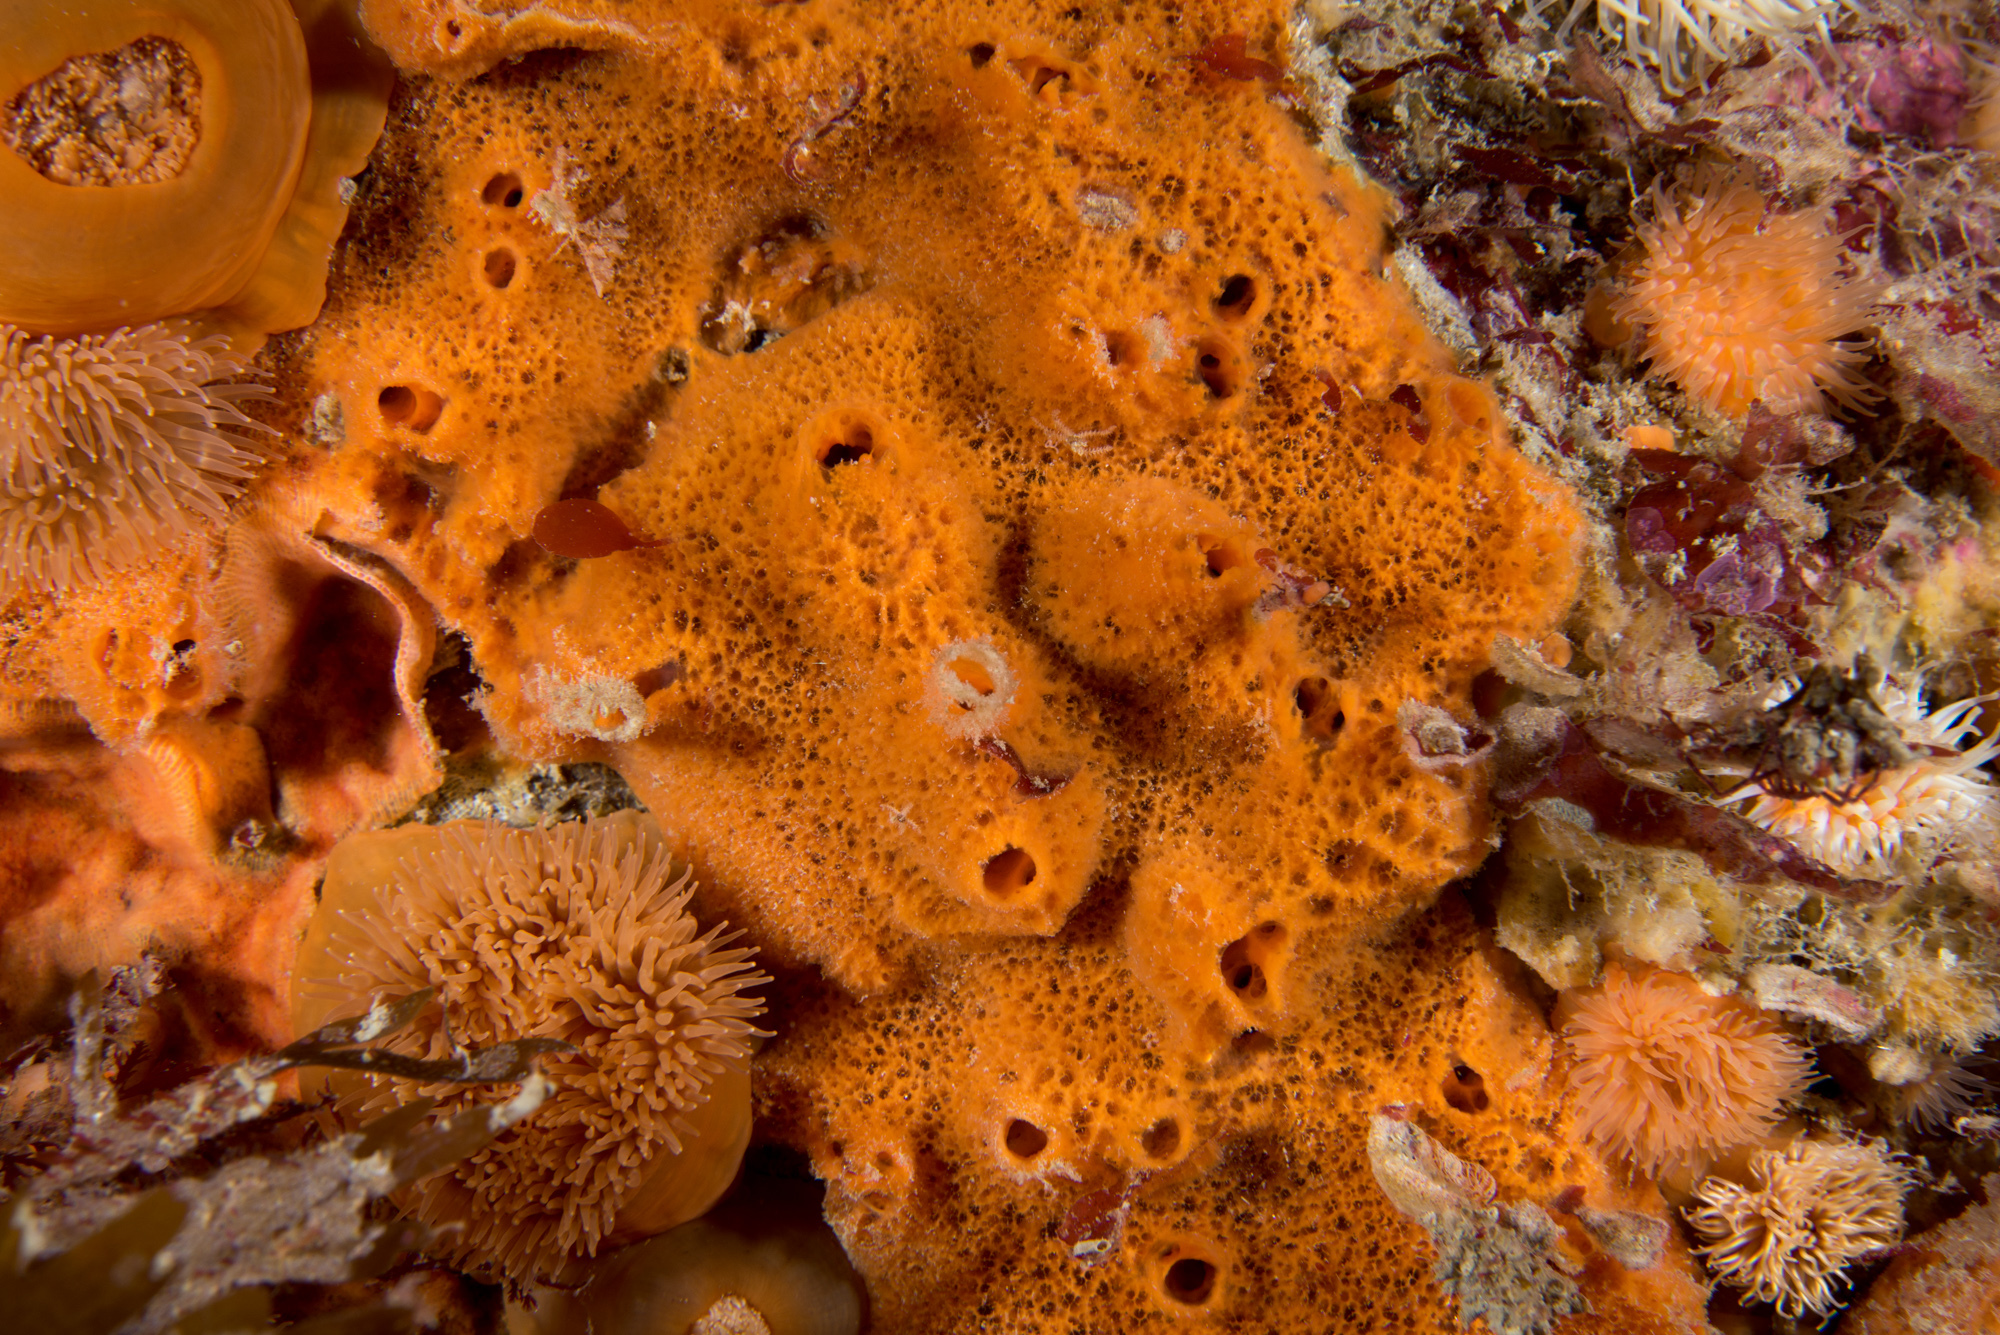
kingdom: Animalia
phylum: Porifera
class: Demospongiae
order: Poecilosclerida
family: Esperiopsidae
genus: Amphilectus
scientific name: Amphilectus fucorum
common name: Carrot-sponge
